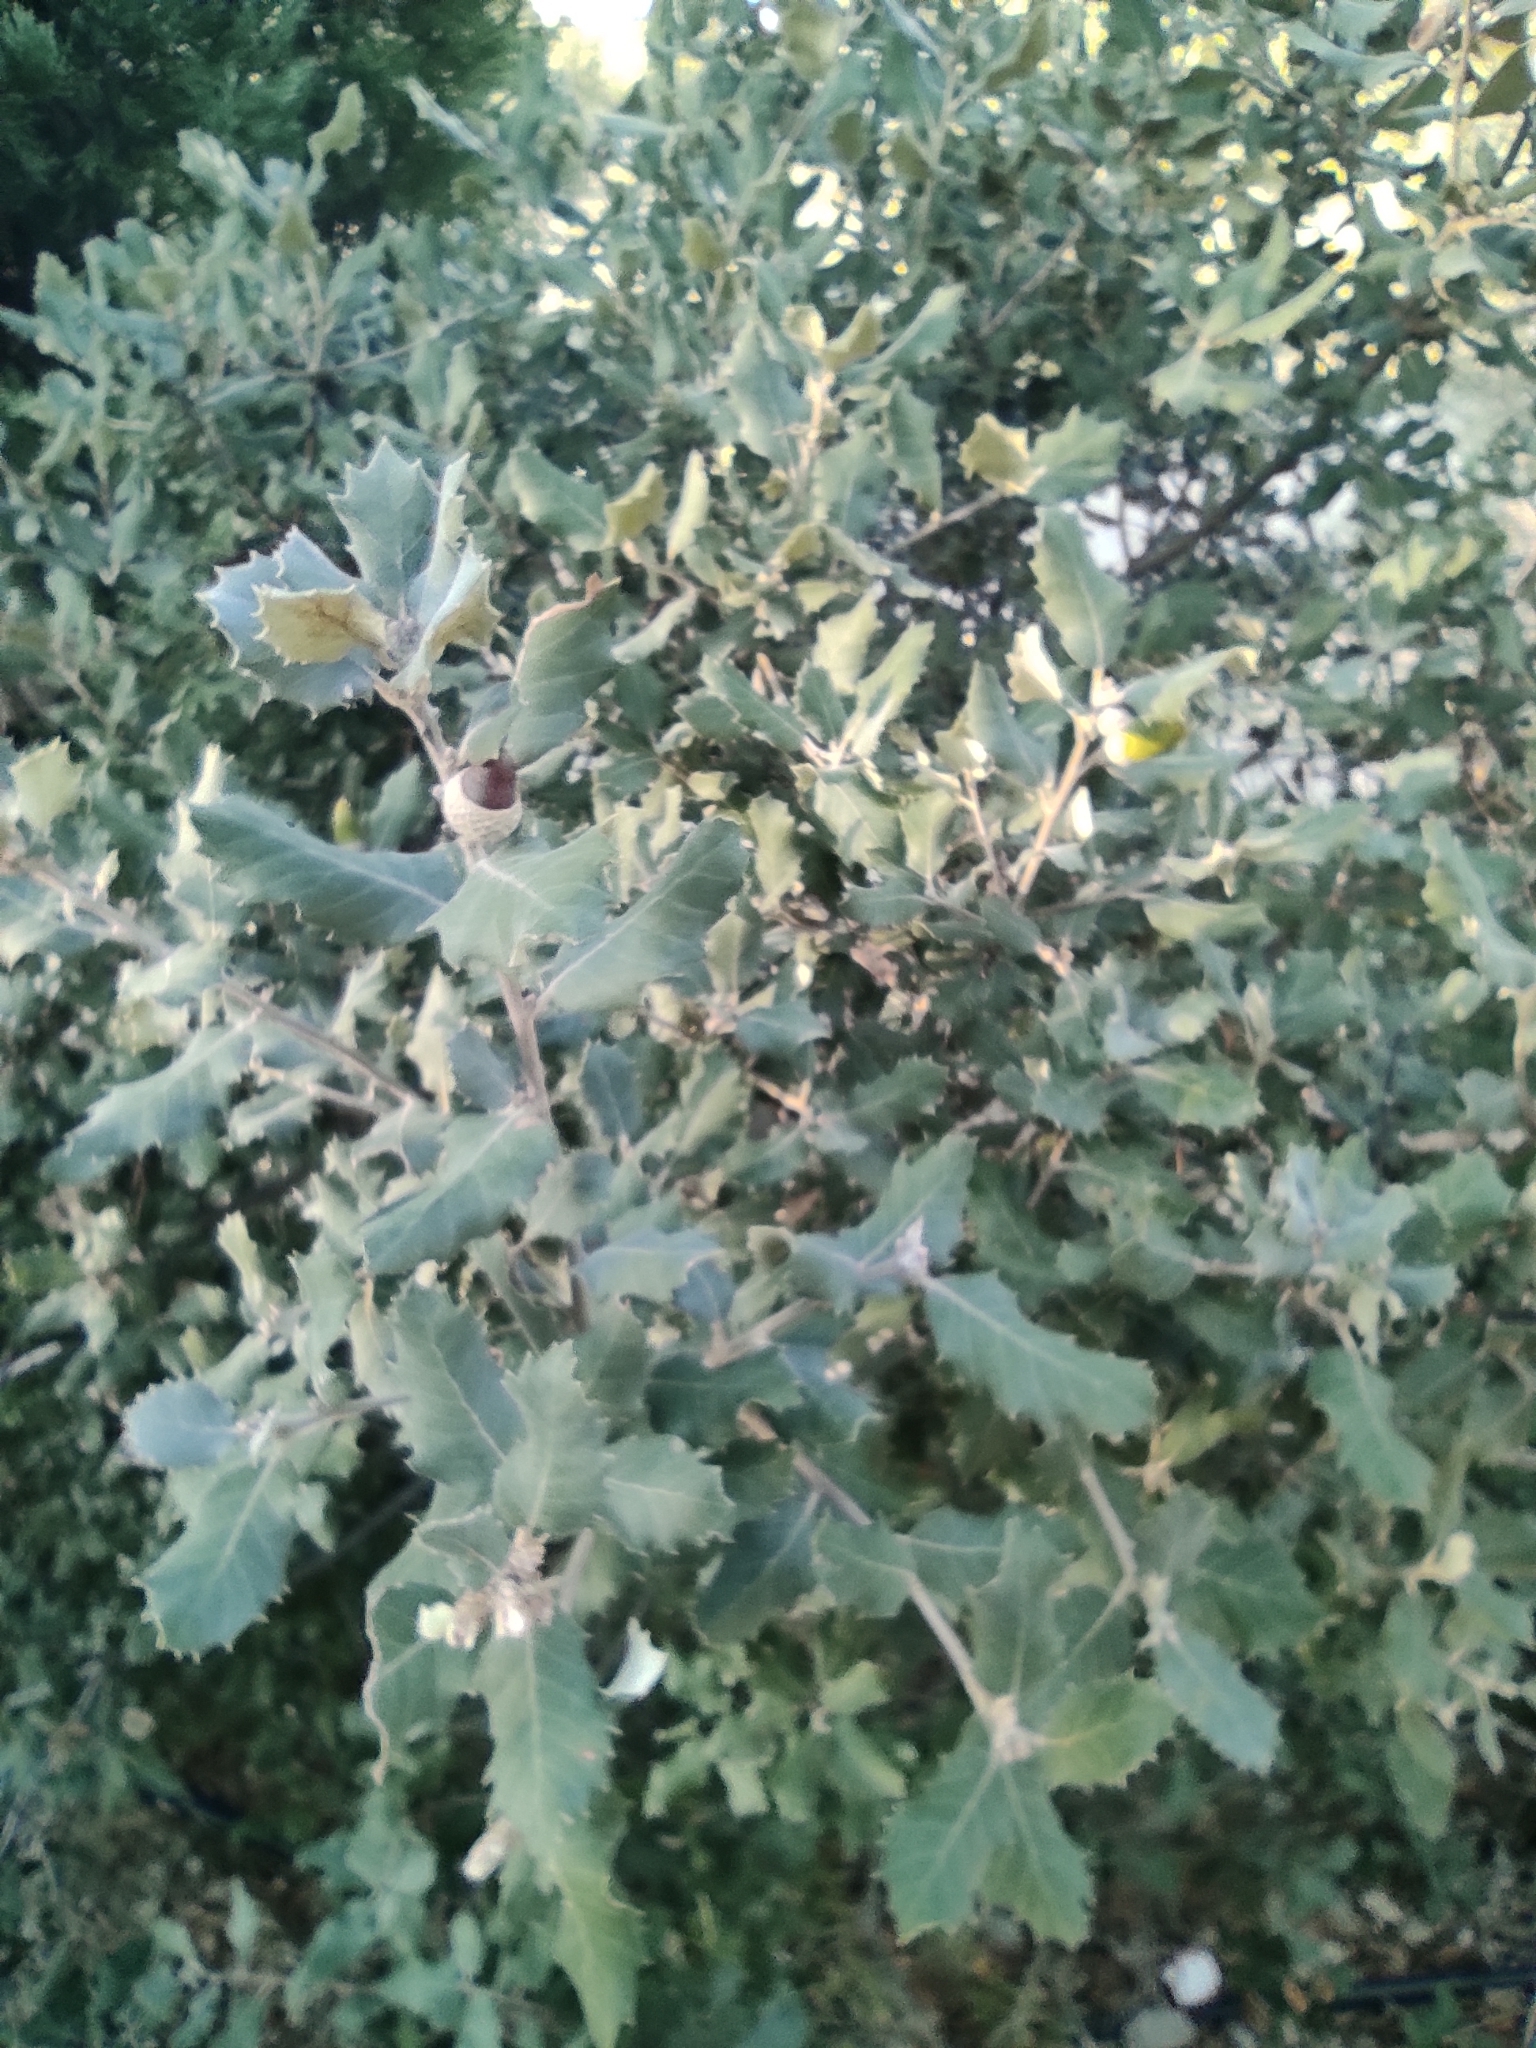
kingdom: Plantae
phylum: Tracheophyta
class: Magnoliopsida
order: Fagales
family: Fagaceae
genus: Quercus
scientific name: Quercus ilex
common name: Evergreen oak
